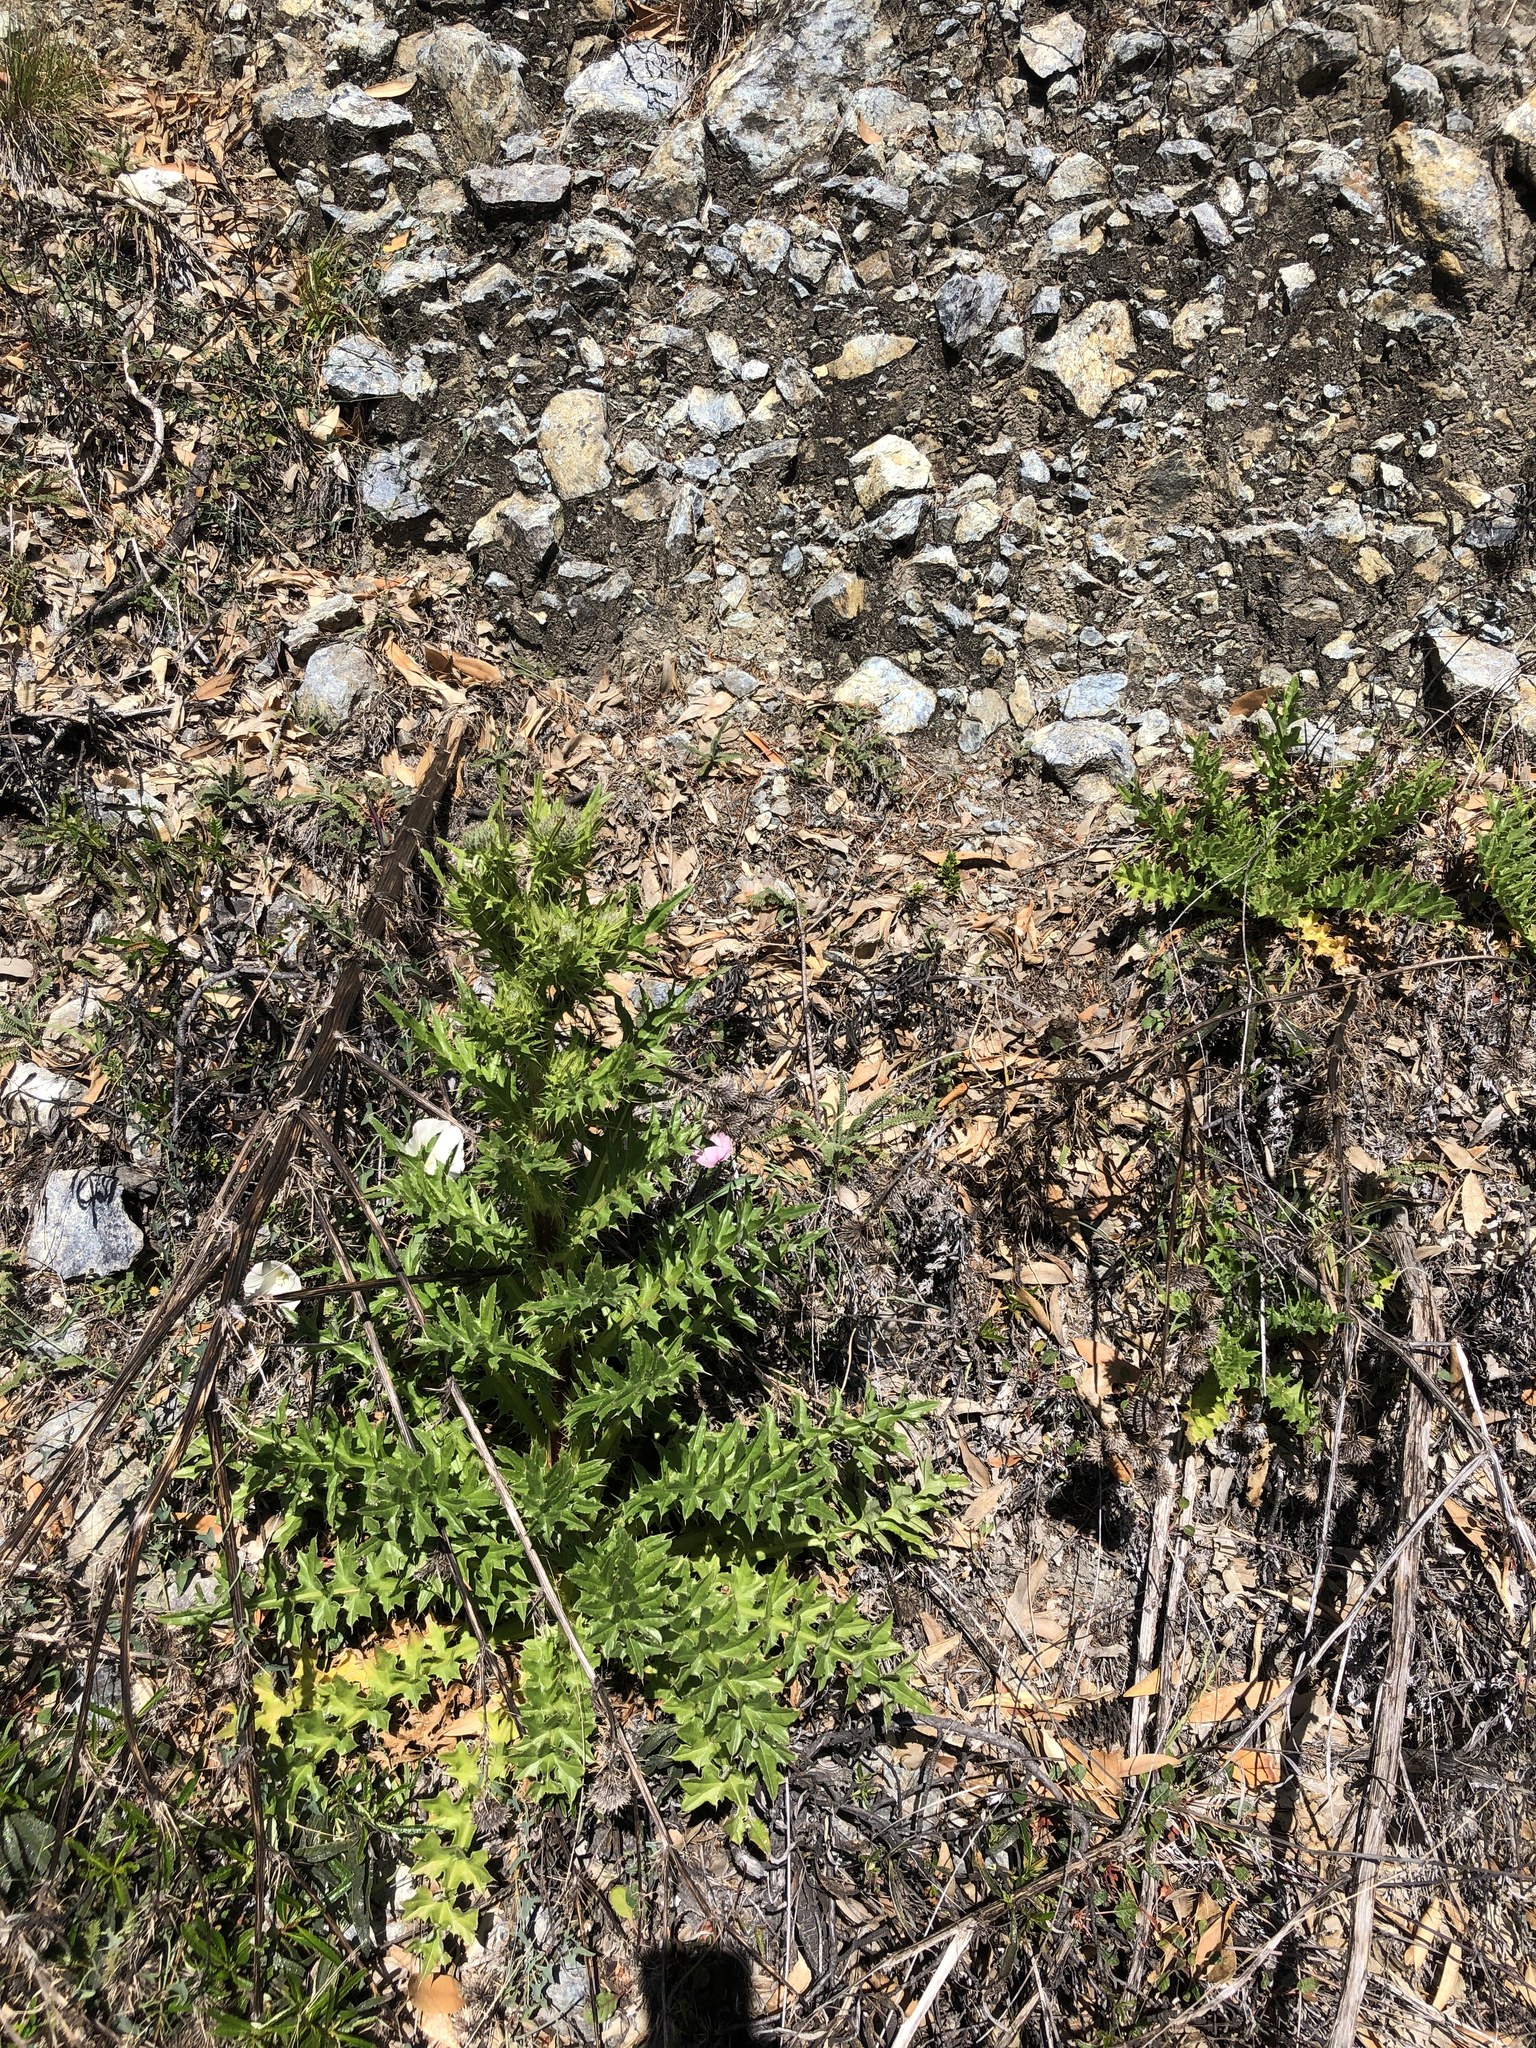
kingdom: Plantae
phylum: Tracheophyta
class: Magnoliopsida
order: Asterales
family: Asteraceae
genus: Cirsium
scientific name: Cirsium hydrophilum
